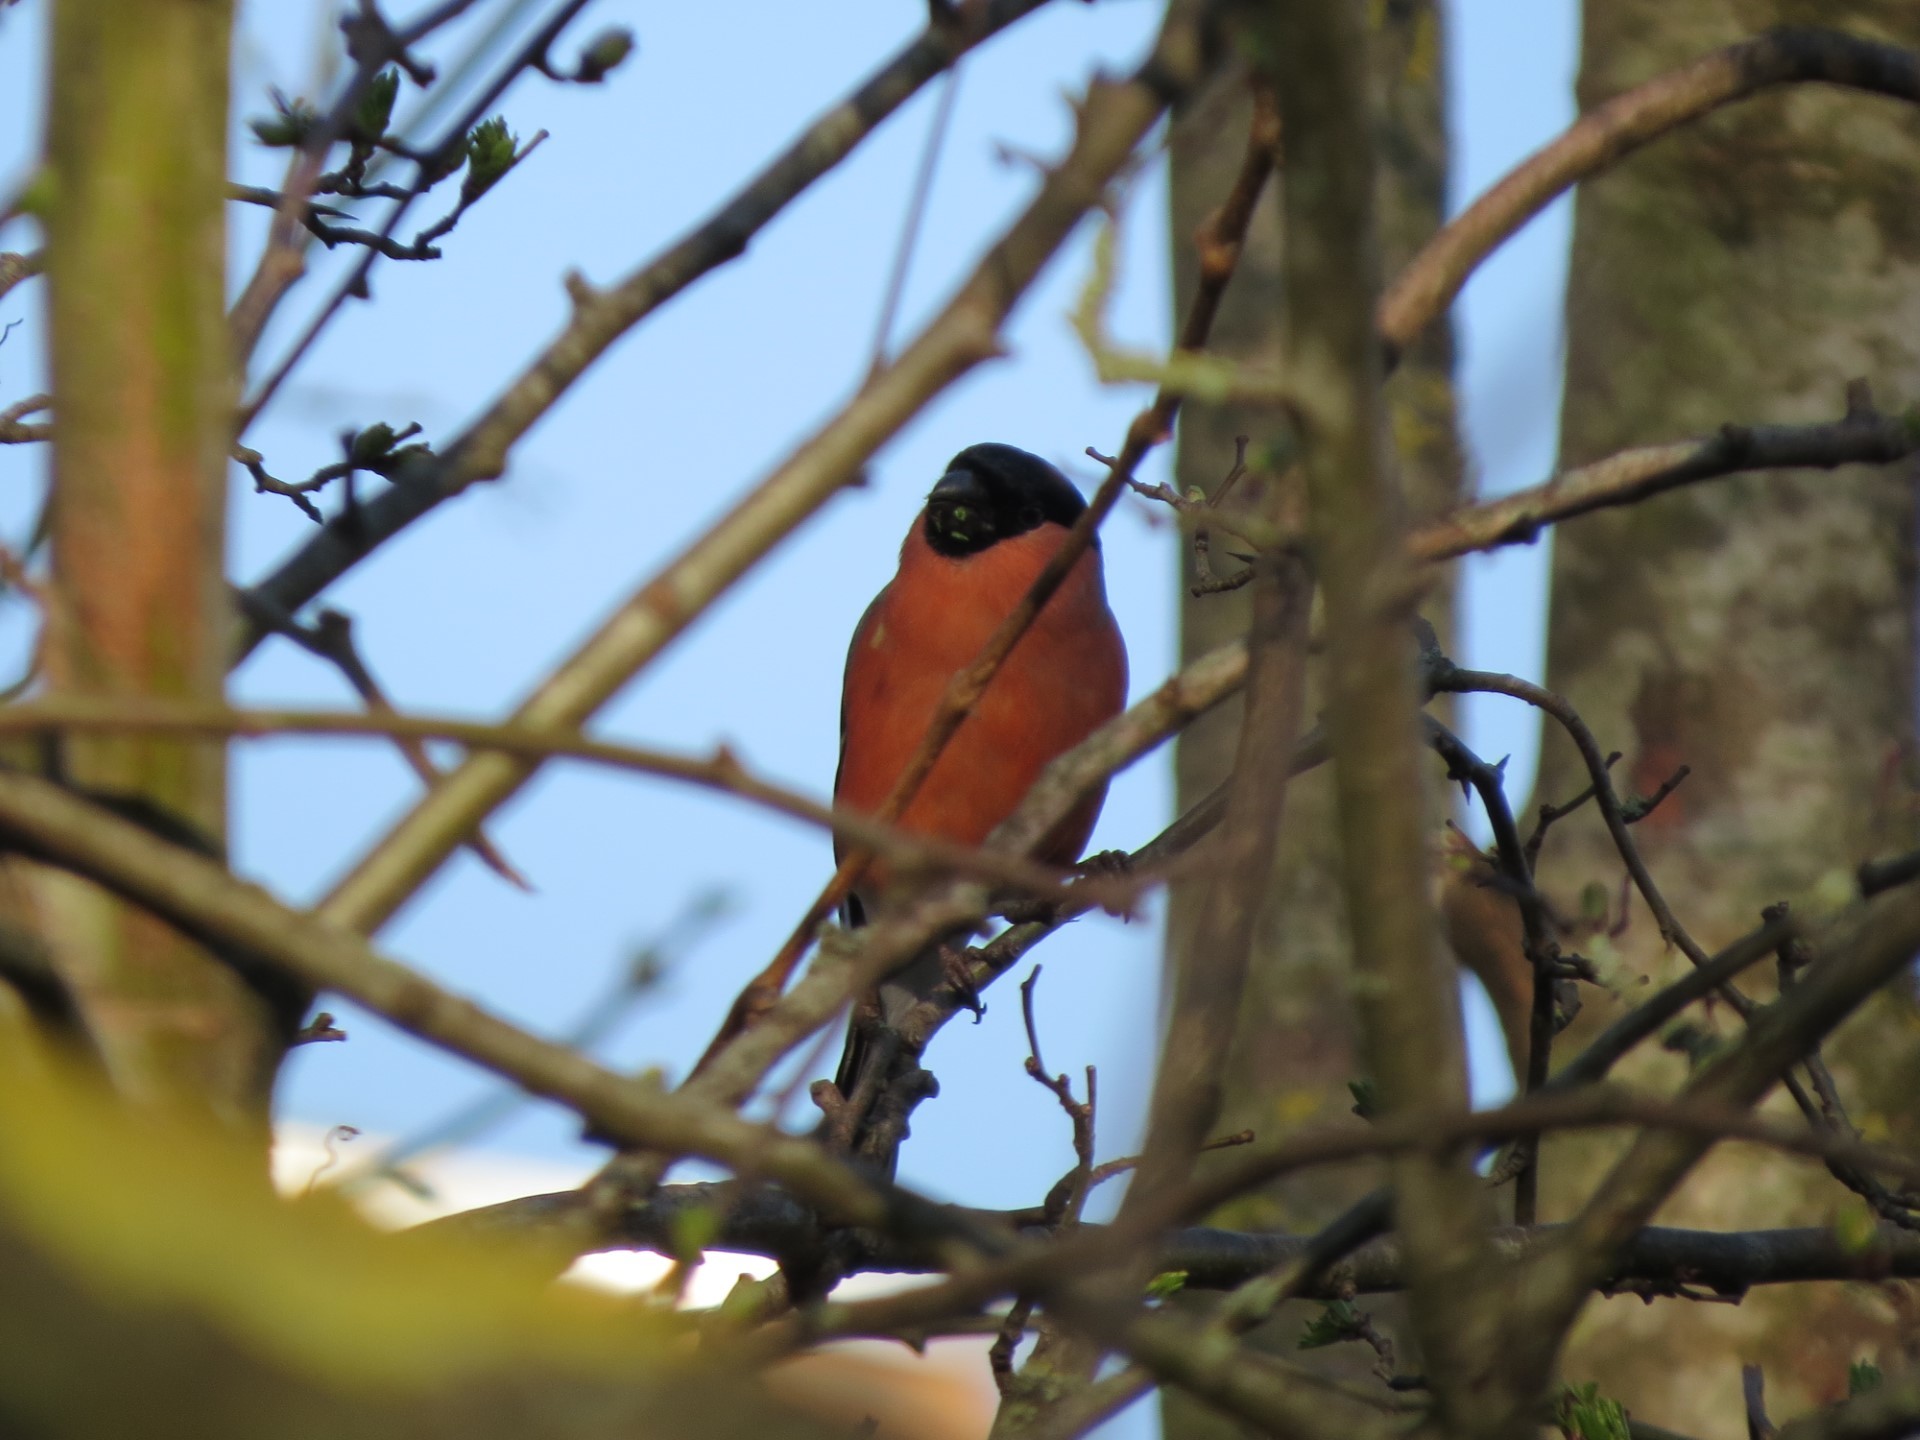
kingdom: Animalia
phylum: Chordata
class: Aves
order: Passeriformes
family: Fringillidae
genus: Pyrrhula
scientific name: Pyrrhula pyrrhula
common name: Eurasian bullfinch
